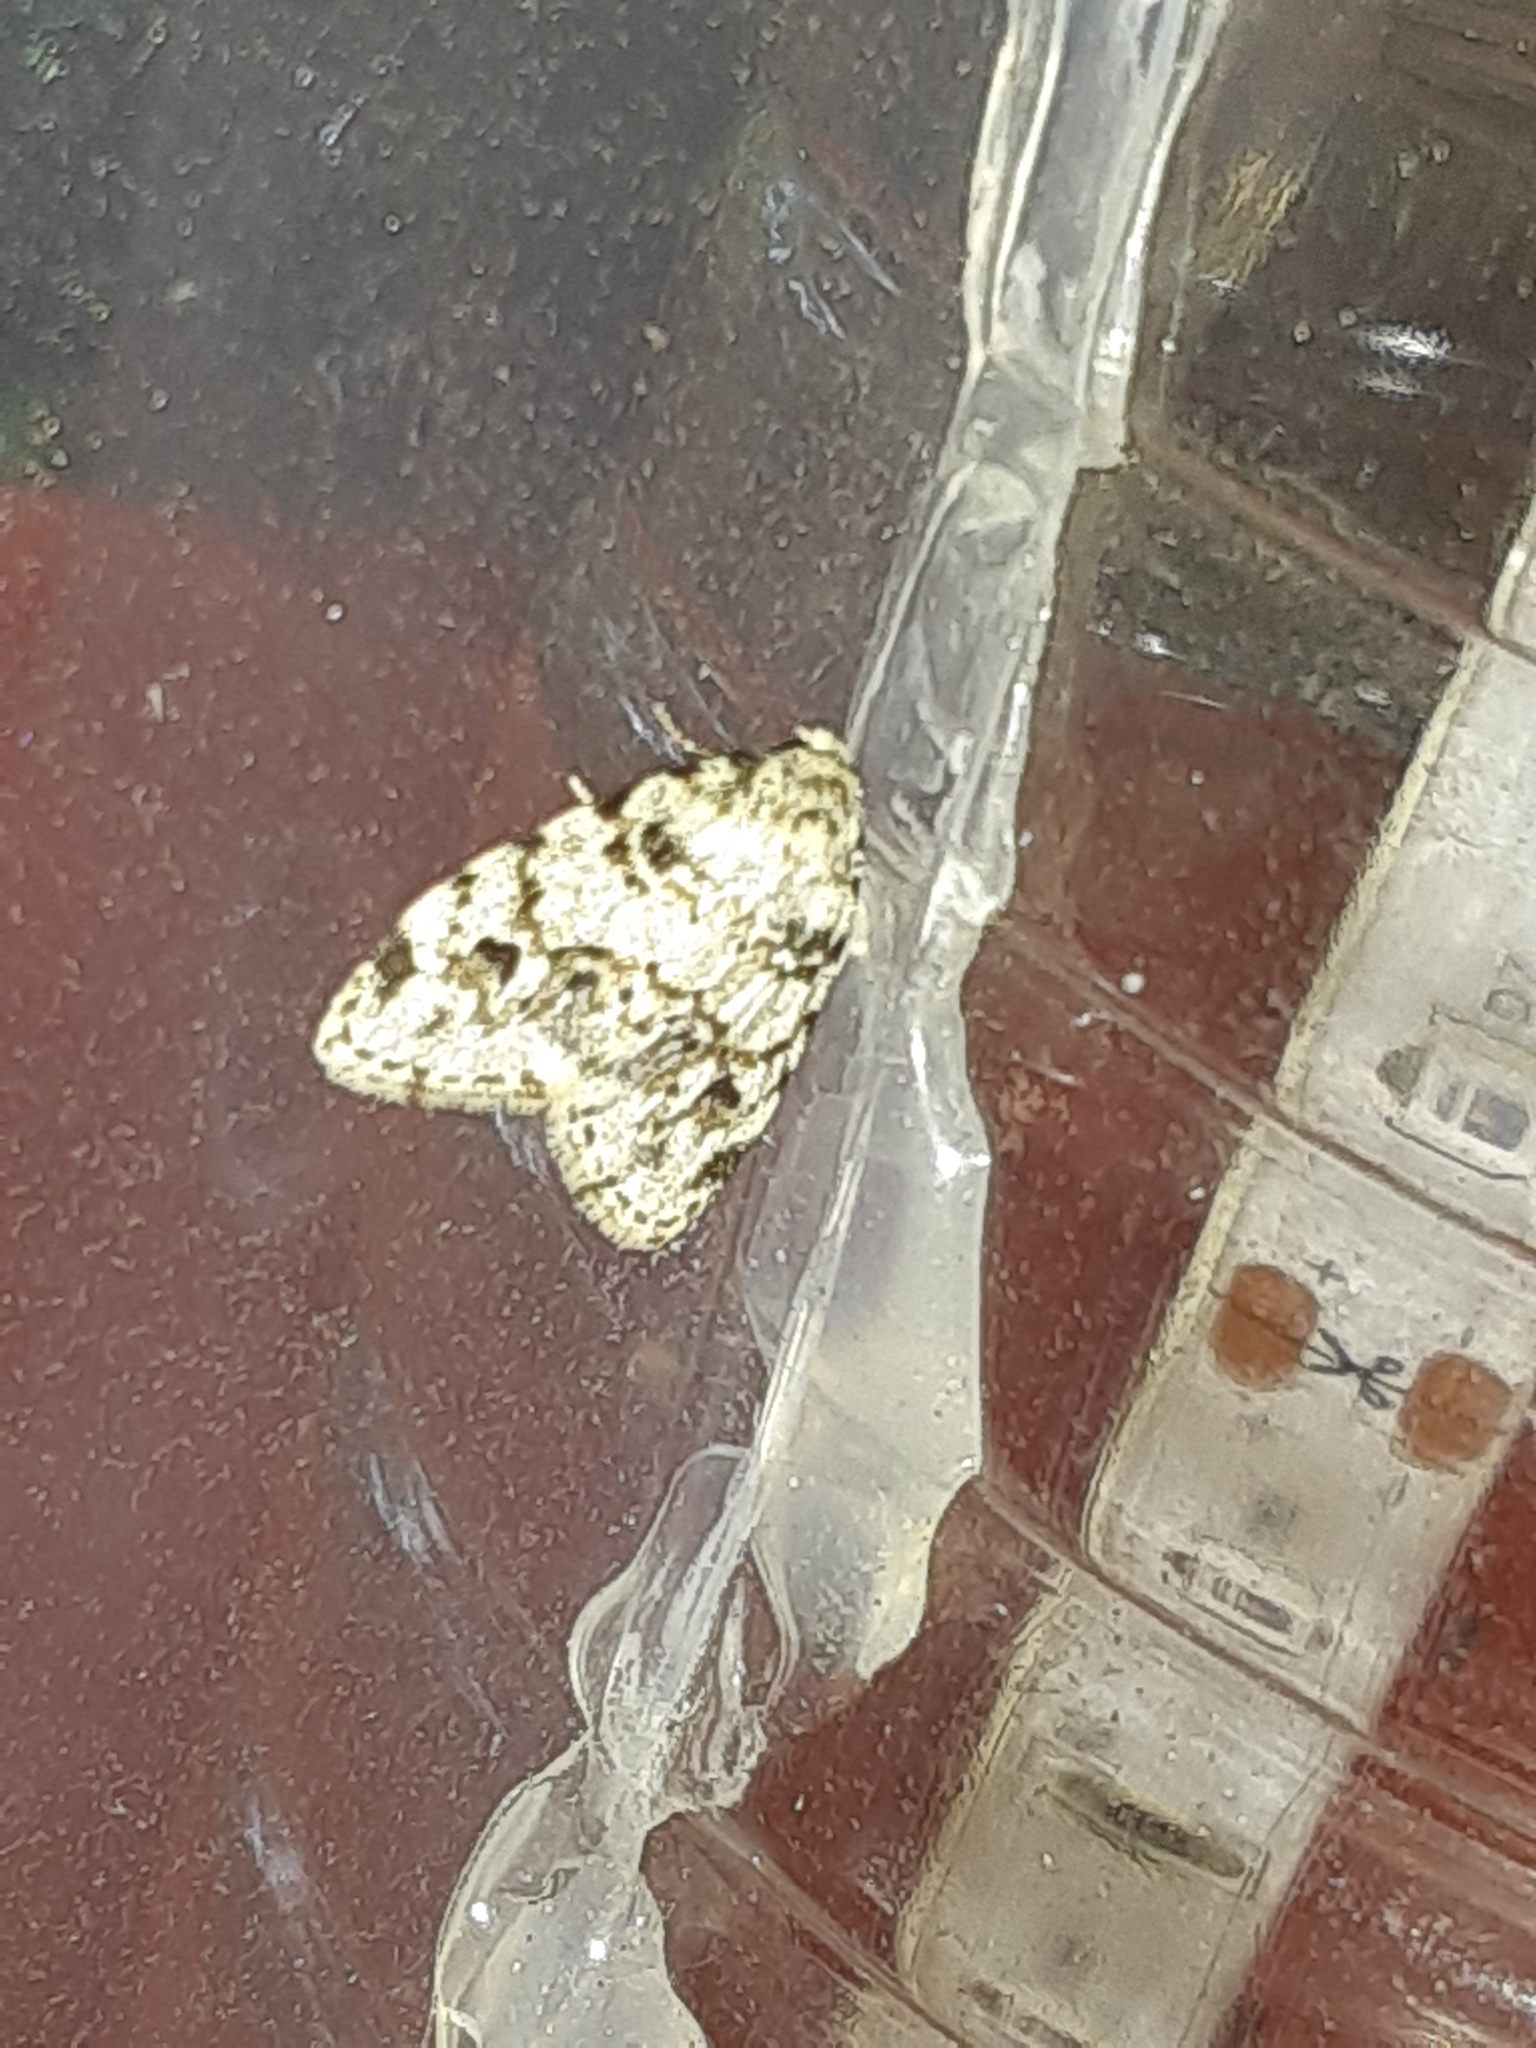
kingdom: Animalia
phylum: Arthropoda
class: Insecta
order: Lepidoptera
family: Erebidae
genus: Clemensia
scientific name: Clemensia ochreata
